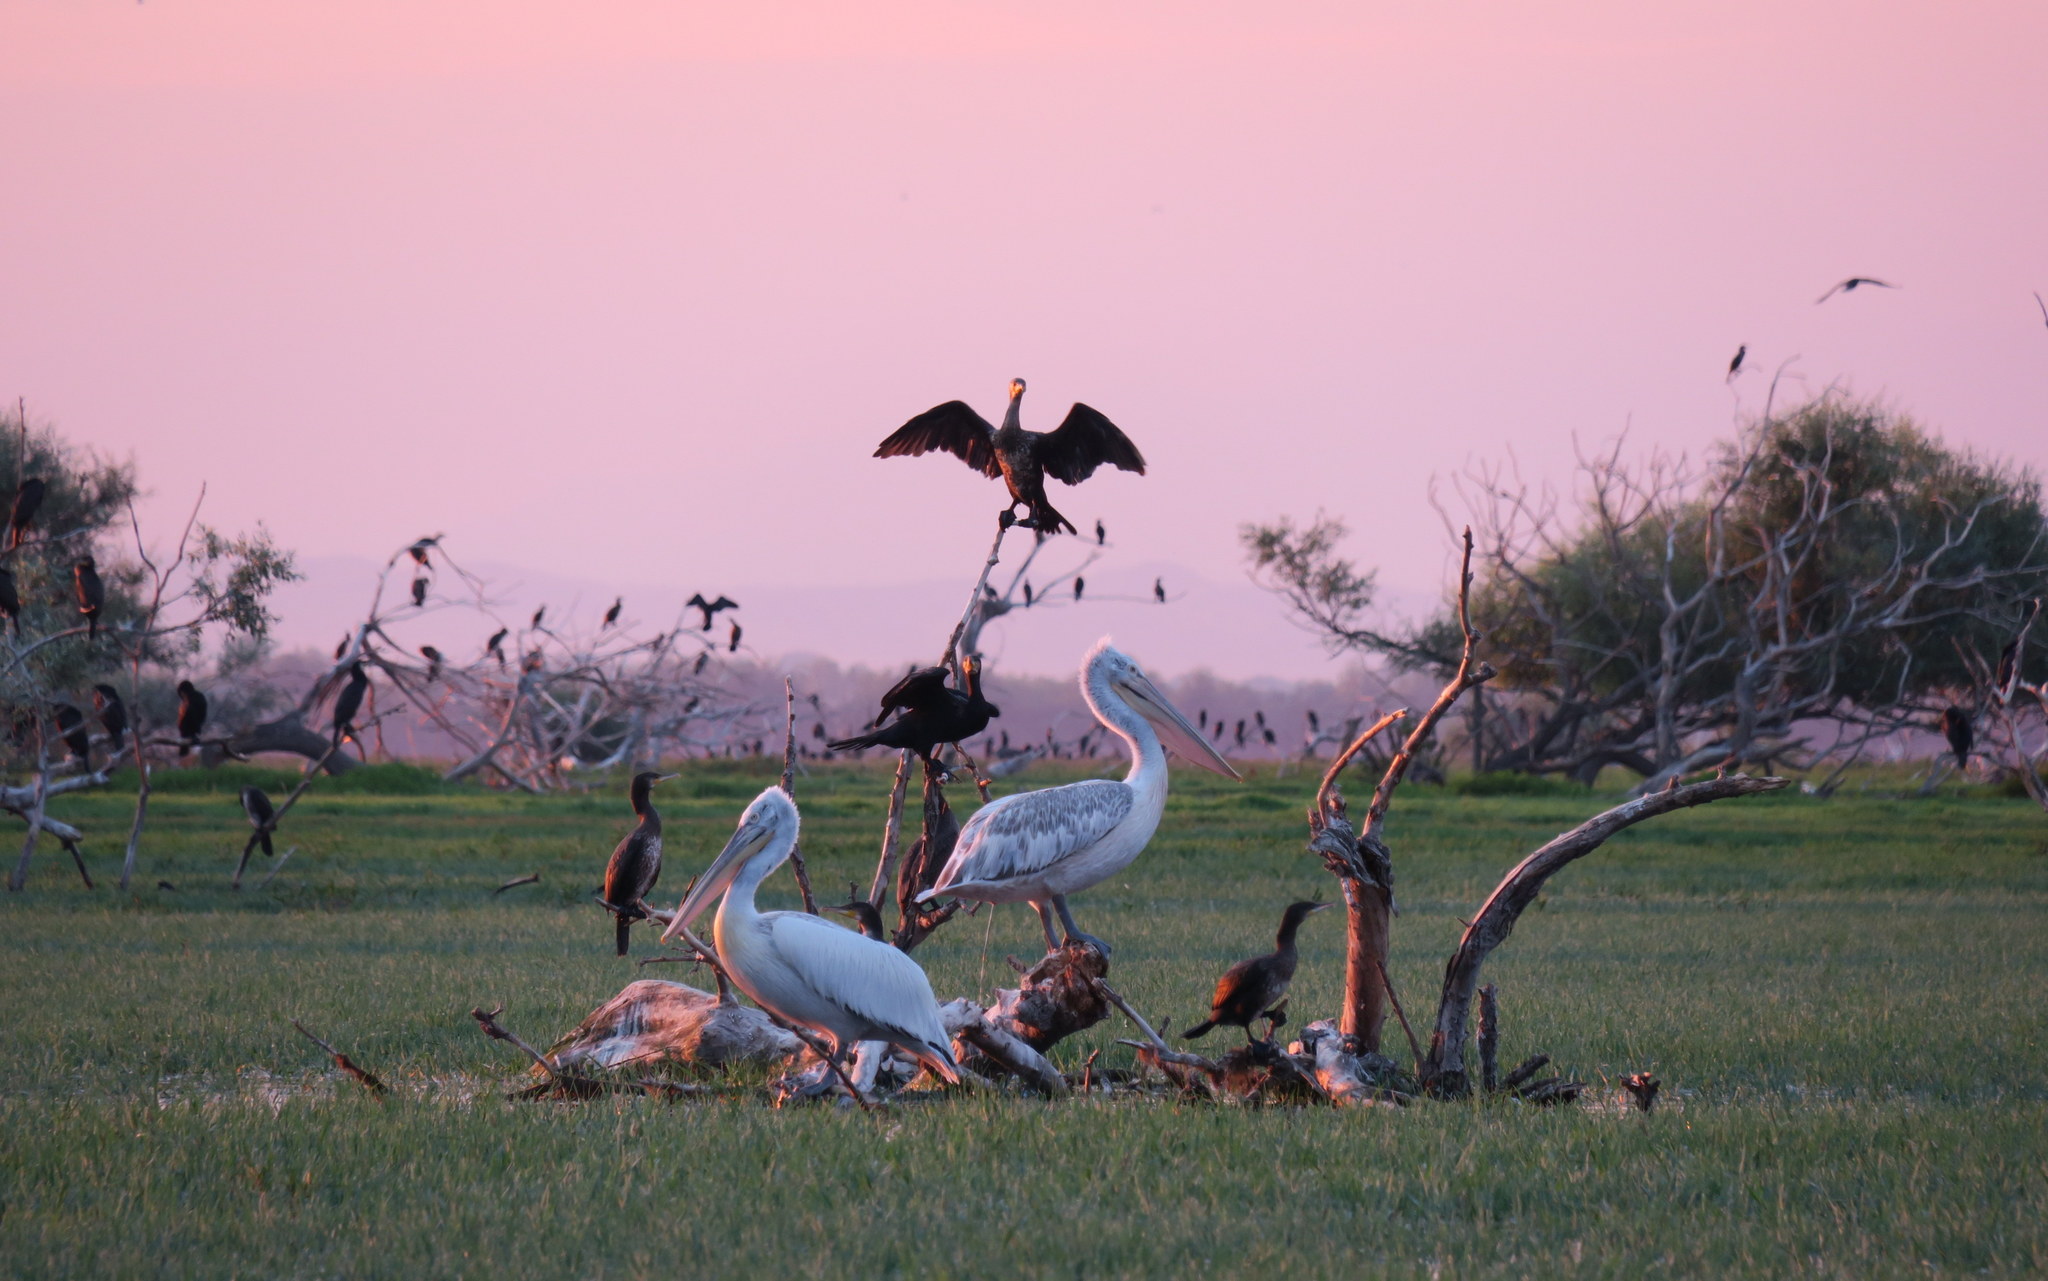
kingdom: Animalia
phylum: Chordata
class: Aves
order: Pelecaniformes
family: Pelecanidae
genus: Pelecanus
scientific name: Pelecanus crispus
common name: Dalmatian pelican
